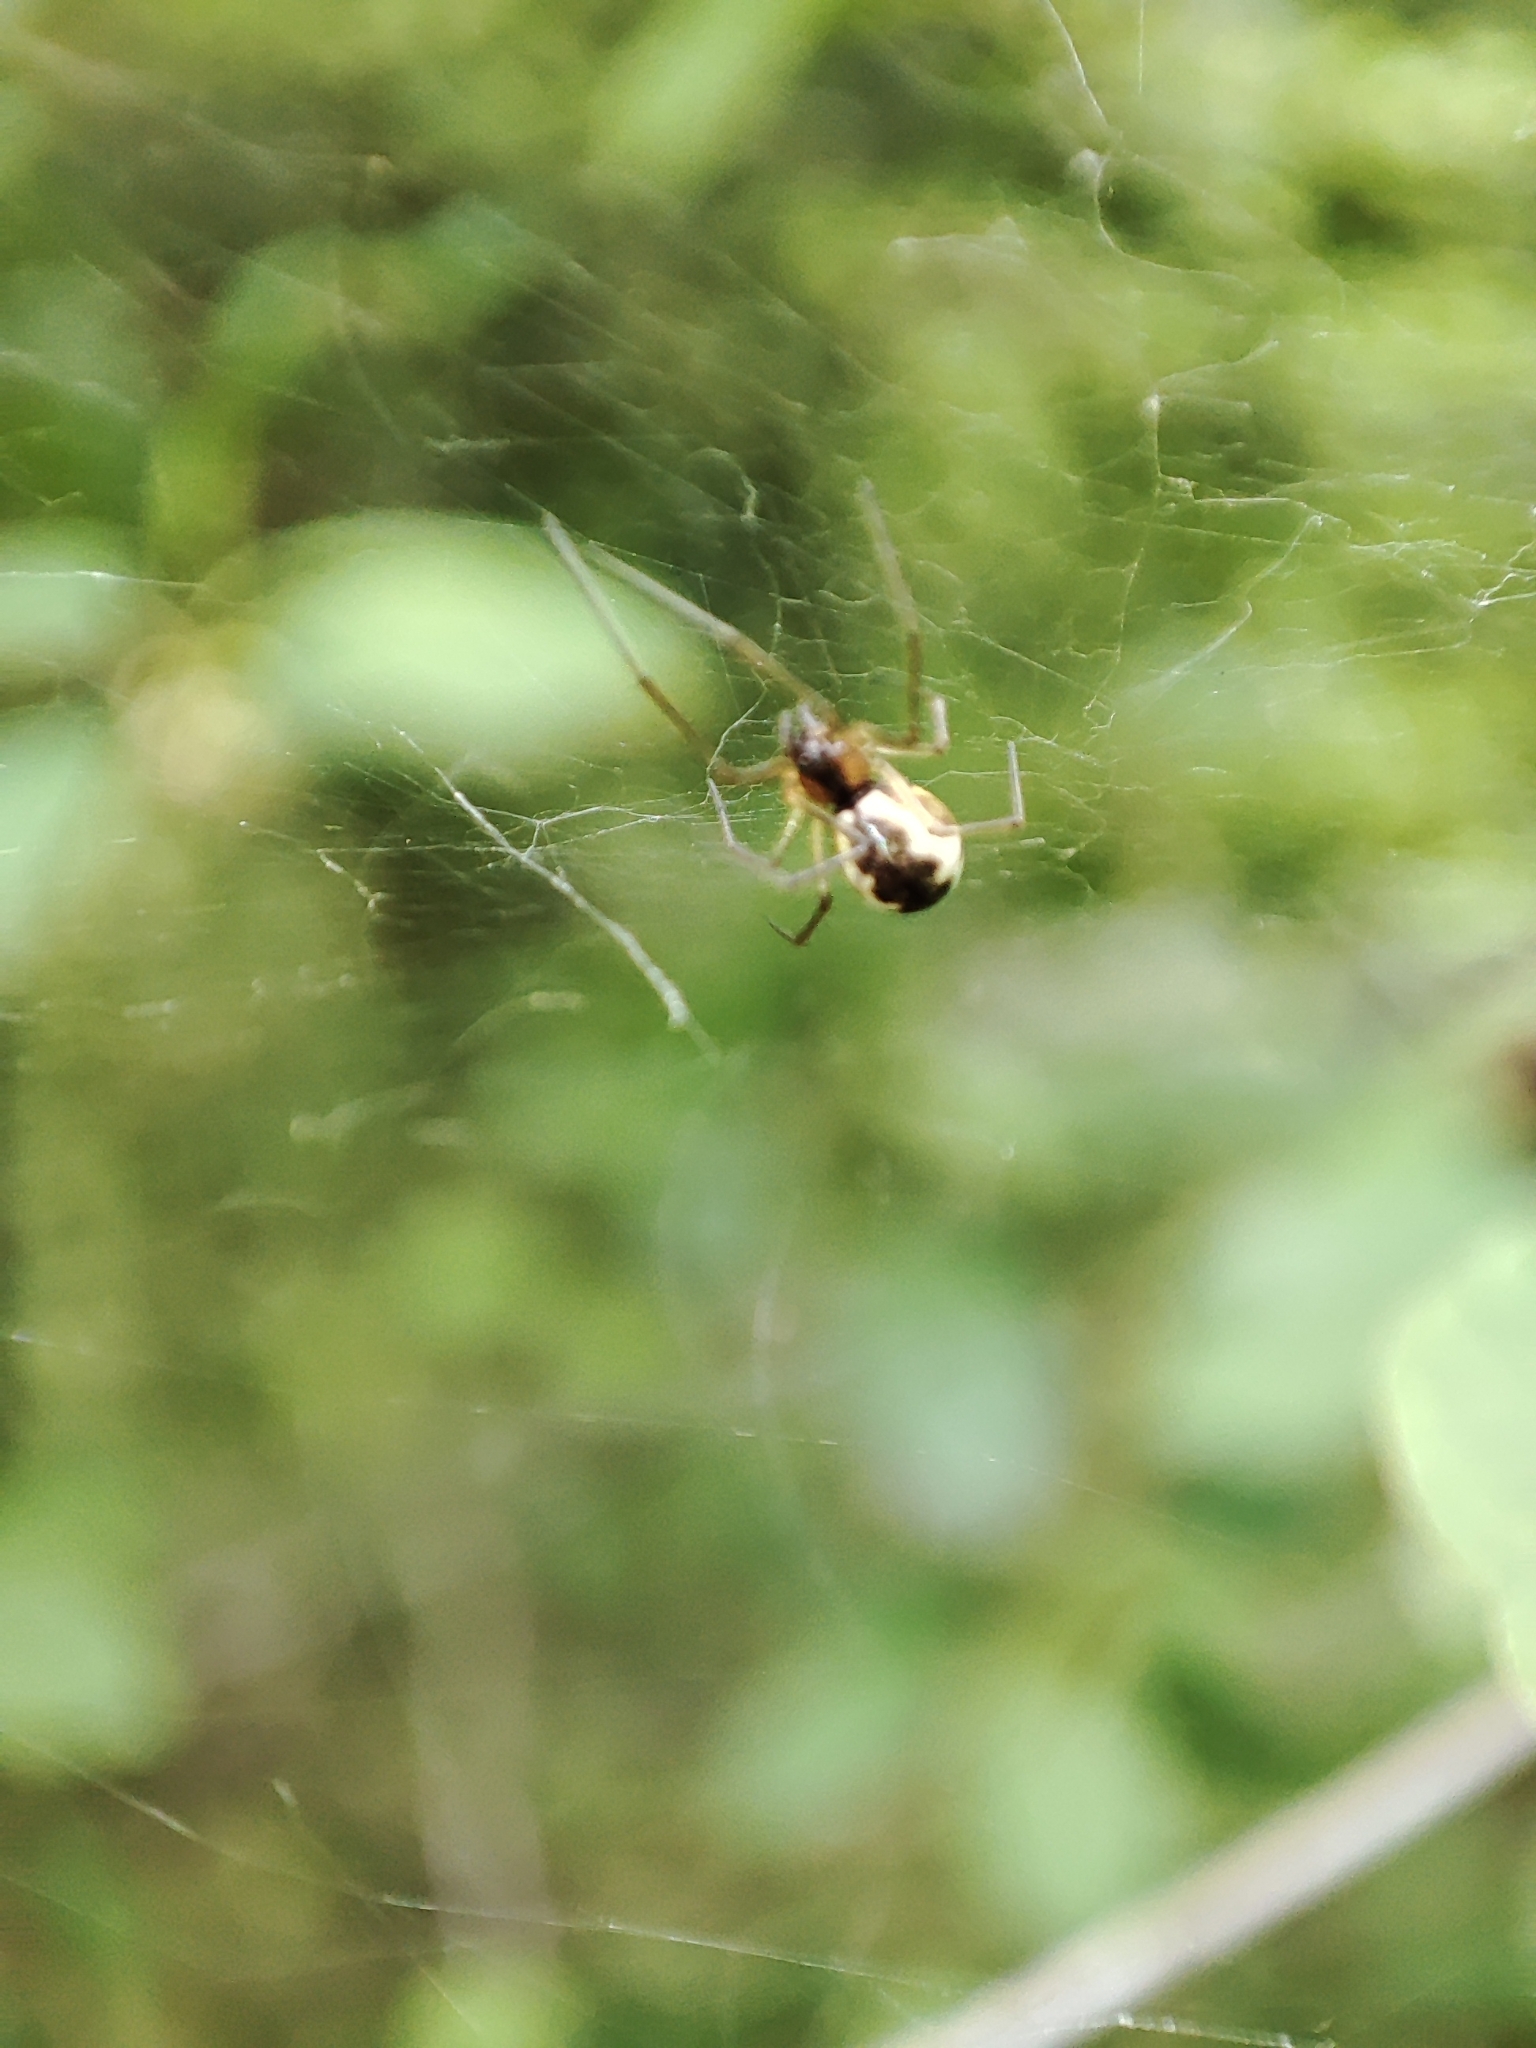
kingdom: Animalia
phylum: Arthropoda
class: Arachnida
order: Araneae
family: Linyphiidae
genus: Neriene
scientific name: Neriene peltata
